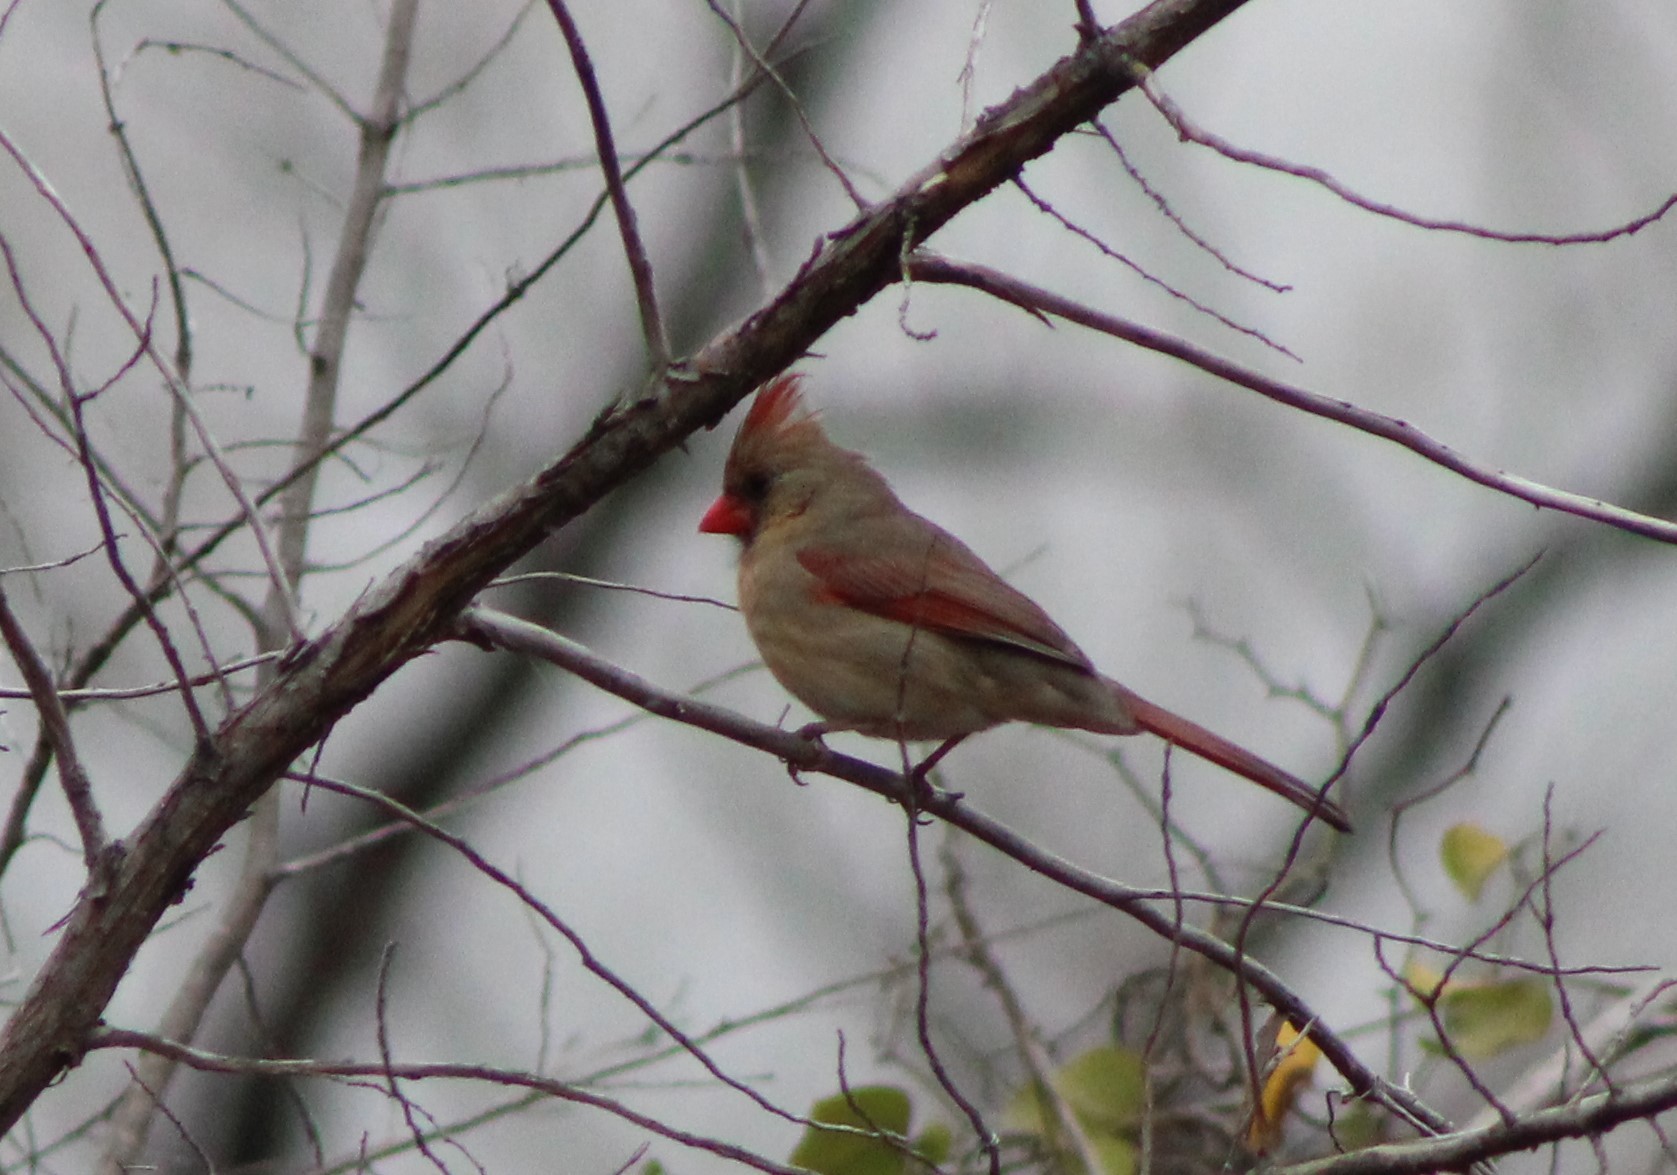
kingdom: Animalia
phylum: Chordata
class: Aves
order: Passeriformes
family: Cardinalidae
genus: Cardinalis
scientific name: Cardinalis cardinalis
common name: Northern cardinal
